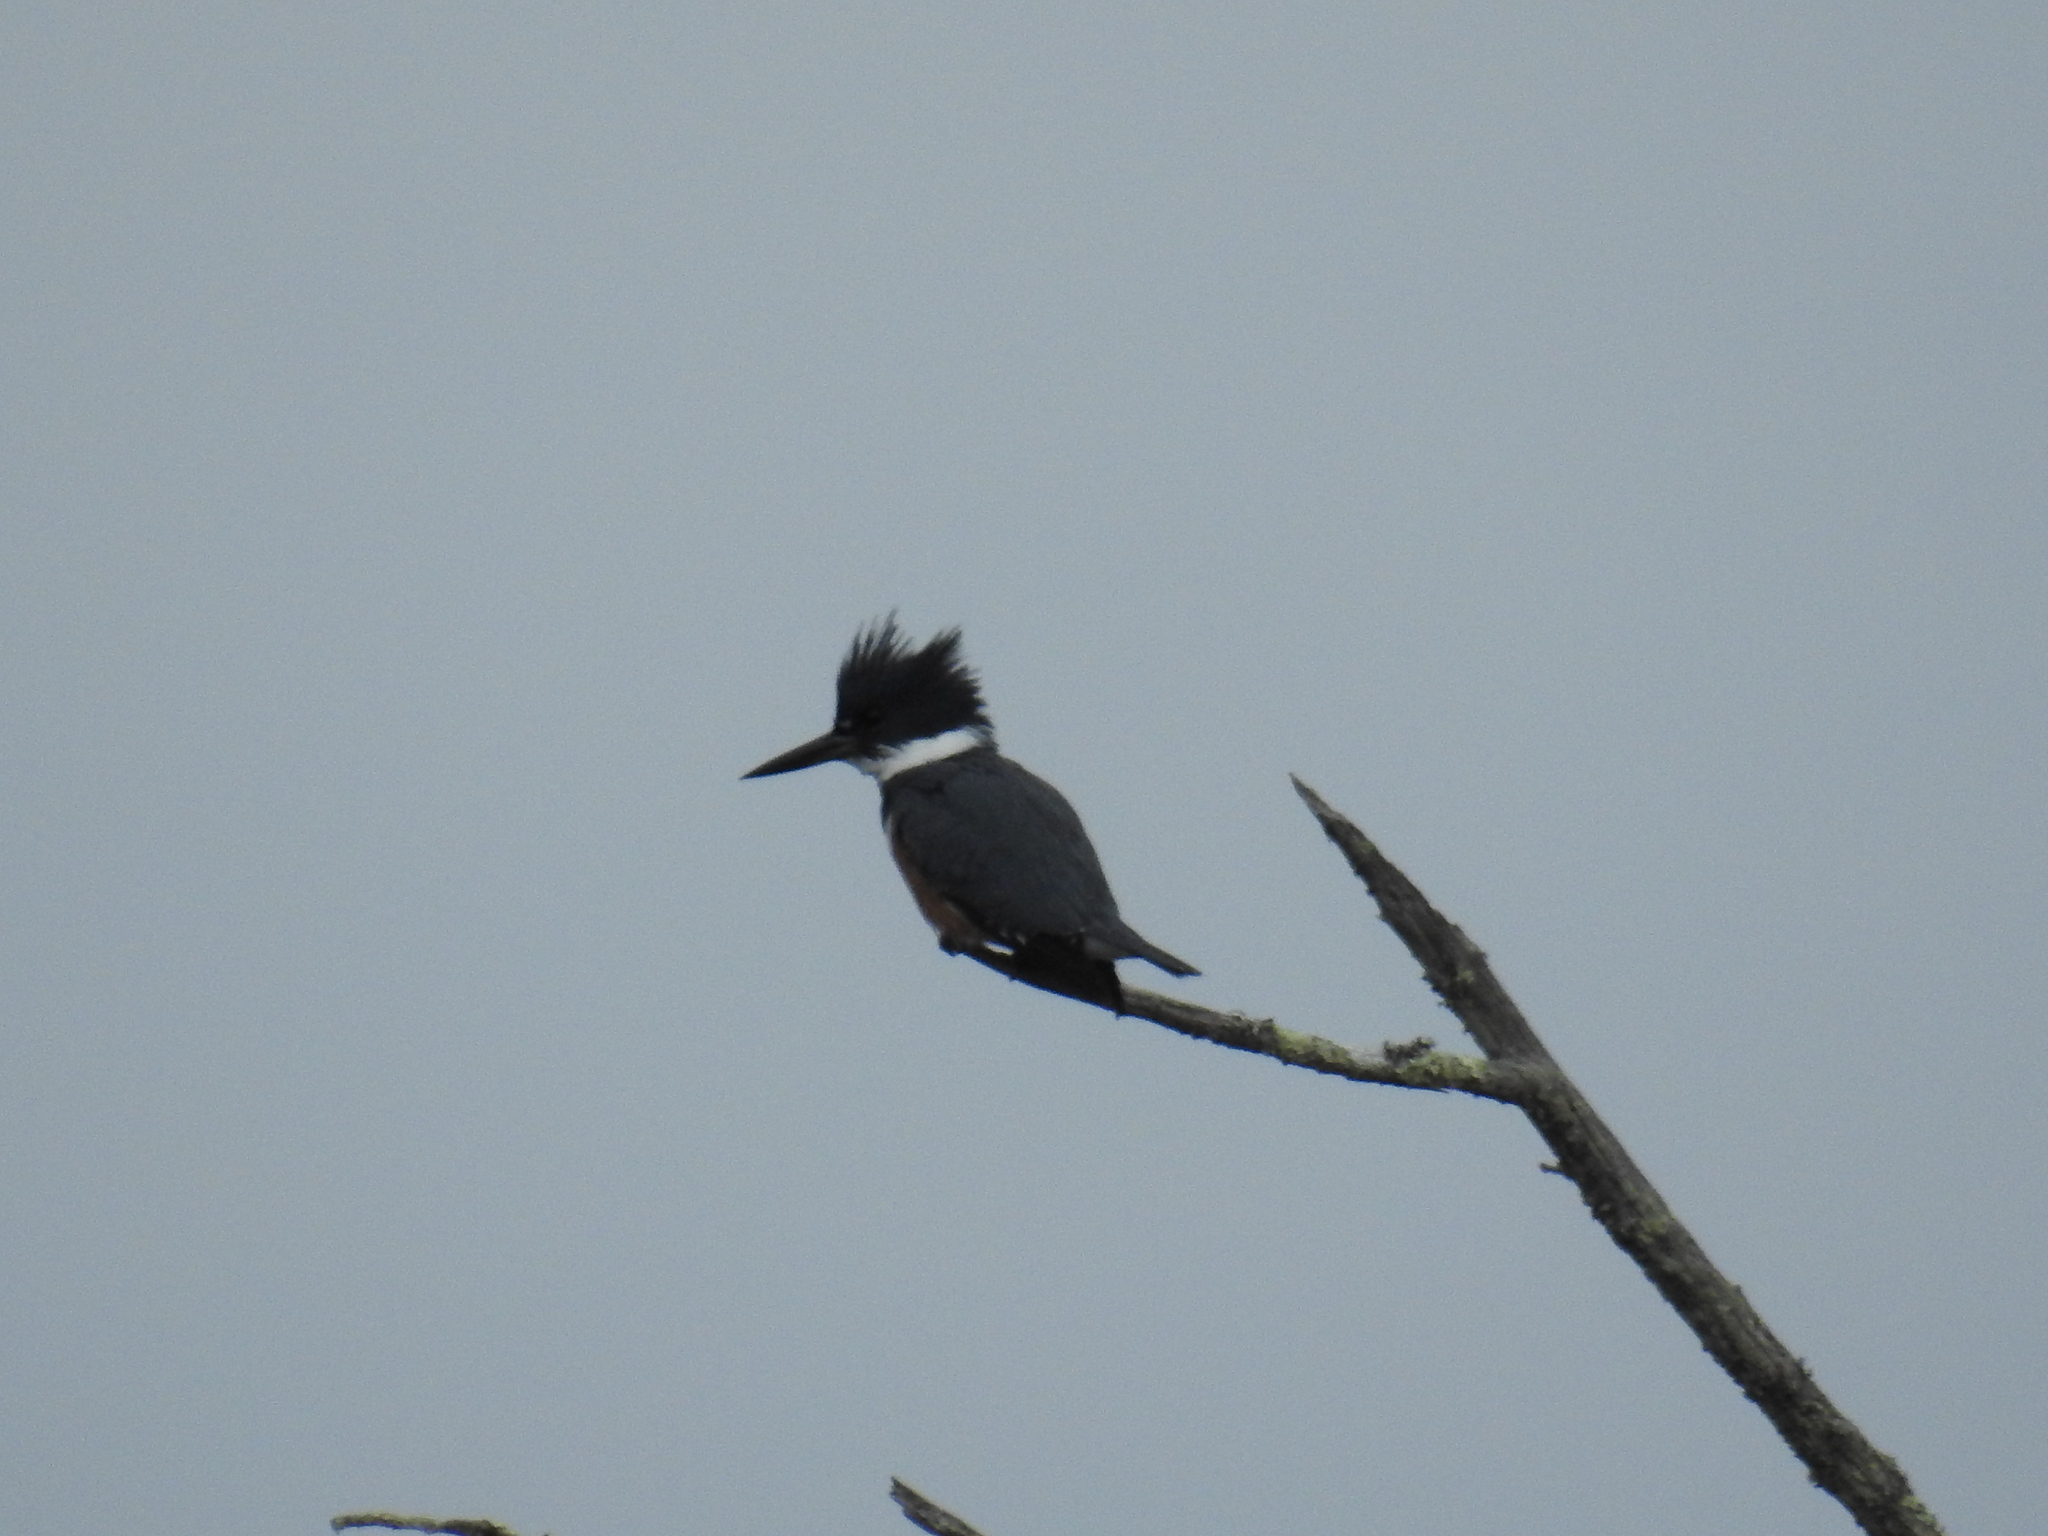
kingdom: Animalia
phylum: Chordata
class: Aves
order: Coraciiformes
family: Alcedinidae
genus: Megaceryle
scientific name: Megaceryle alcyon
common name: Belted kingfisher
